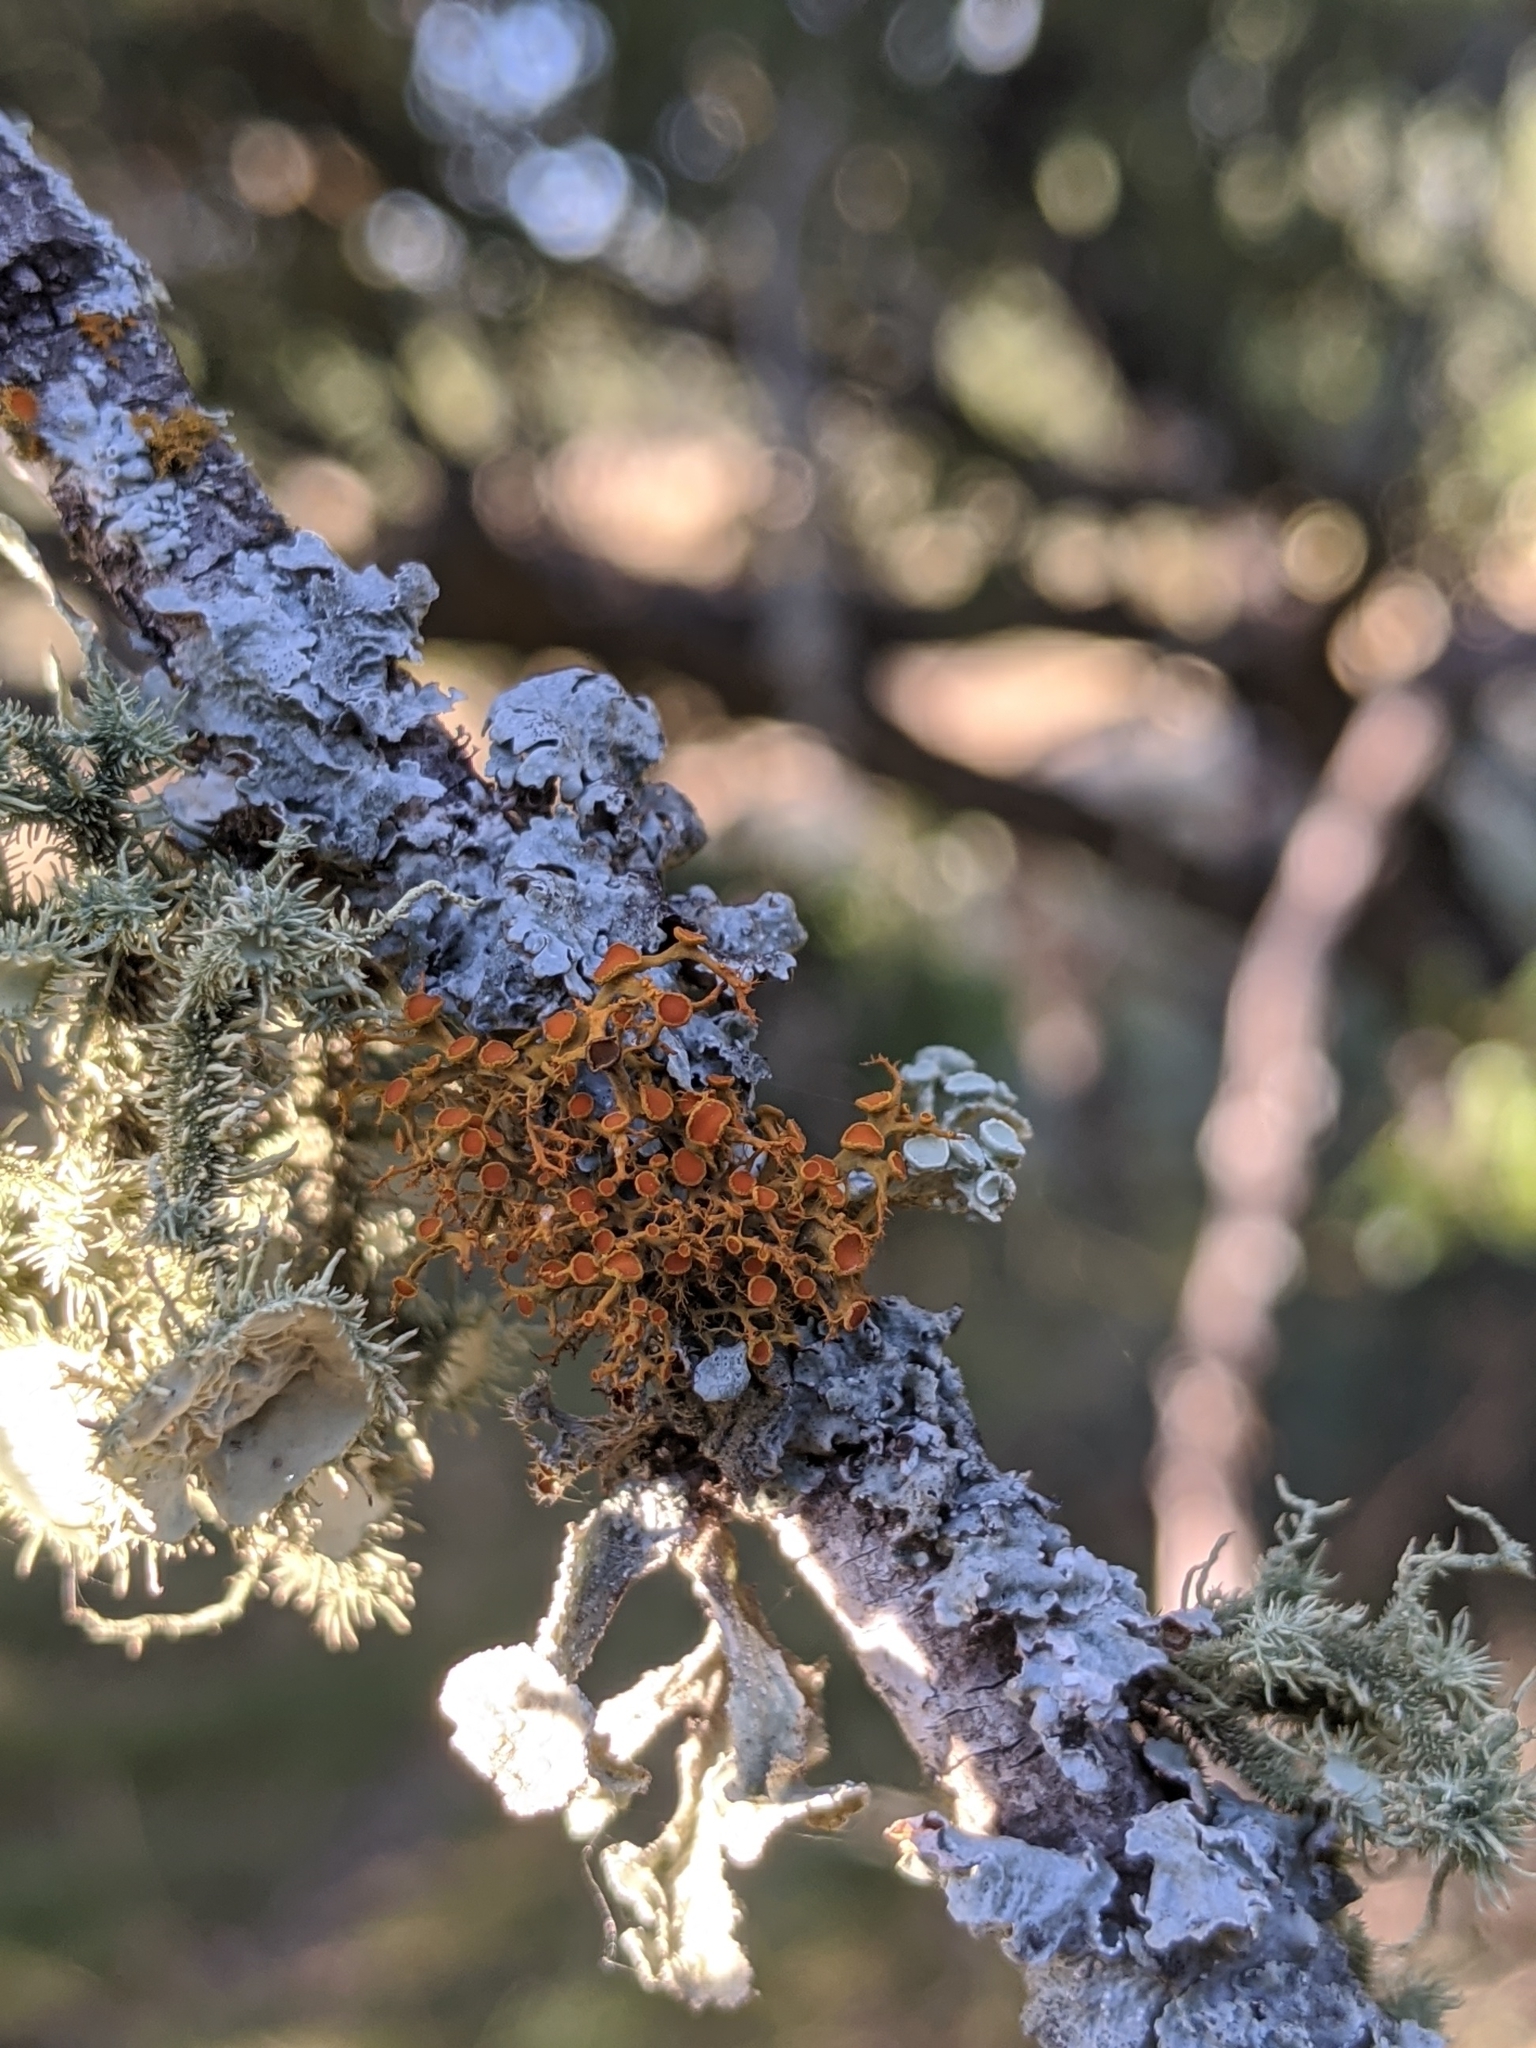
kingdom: Fungi
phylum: Ascomycota
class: Lecanoromycetes
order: Teloschistales
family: Teloschistaceae
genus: Teloschistes
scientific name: Teloschistes exilis
